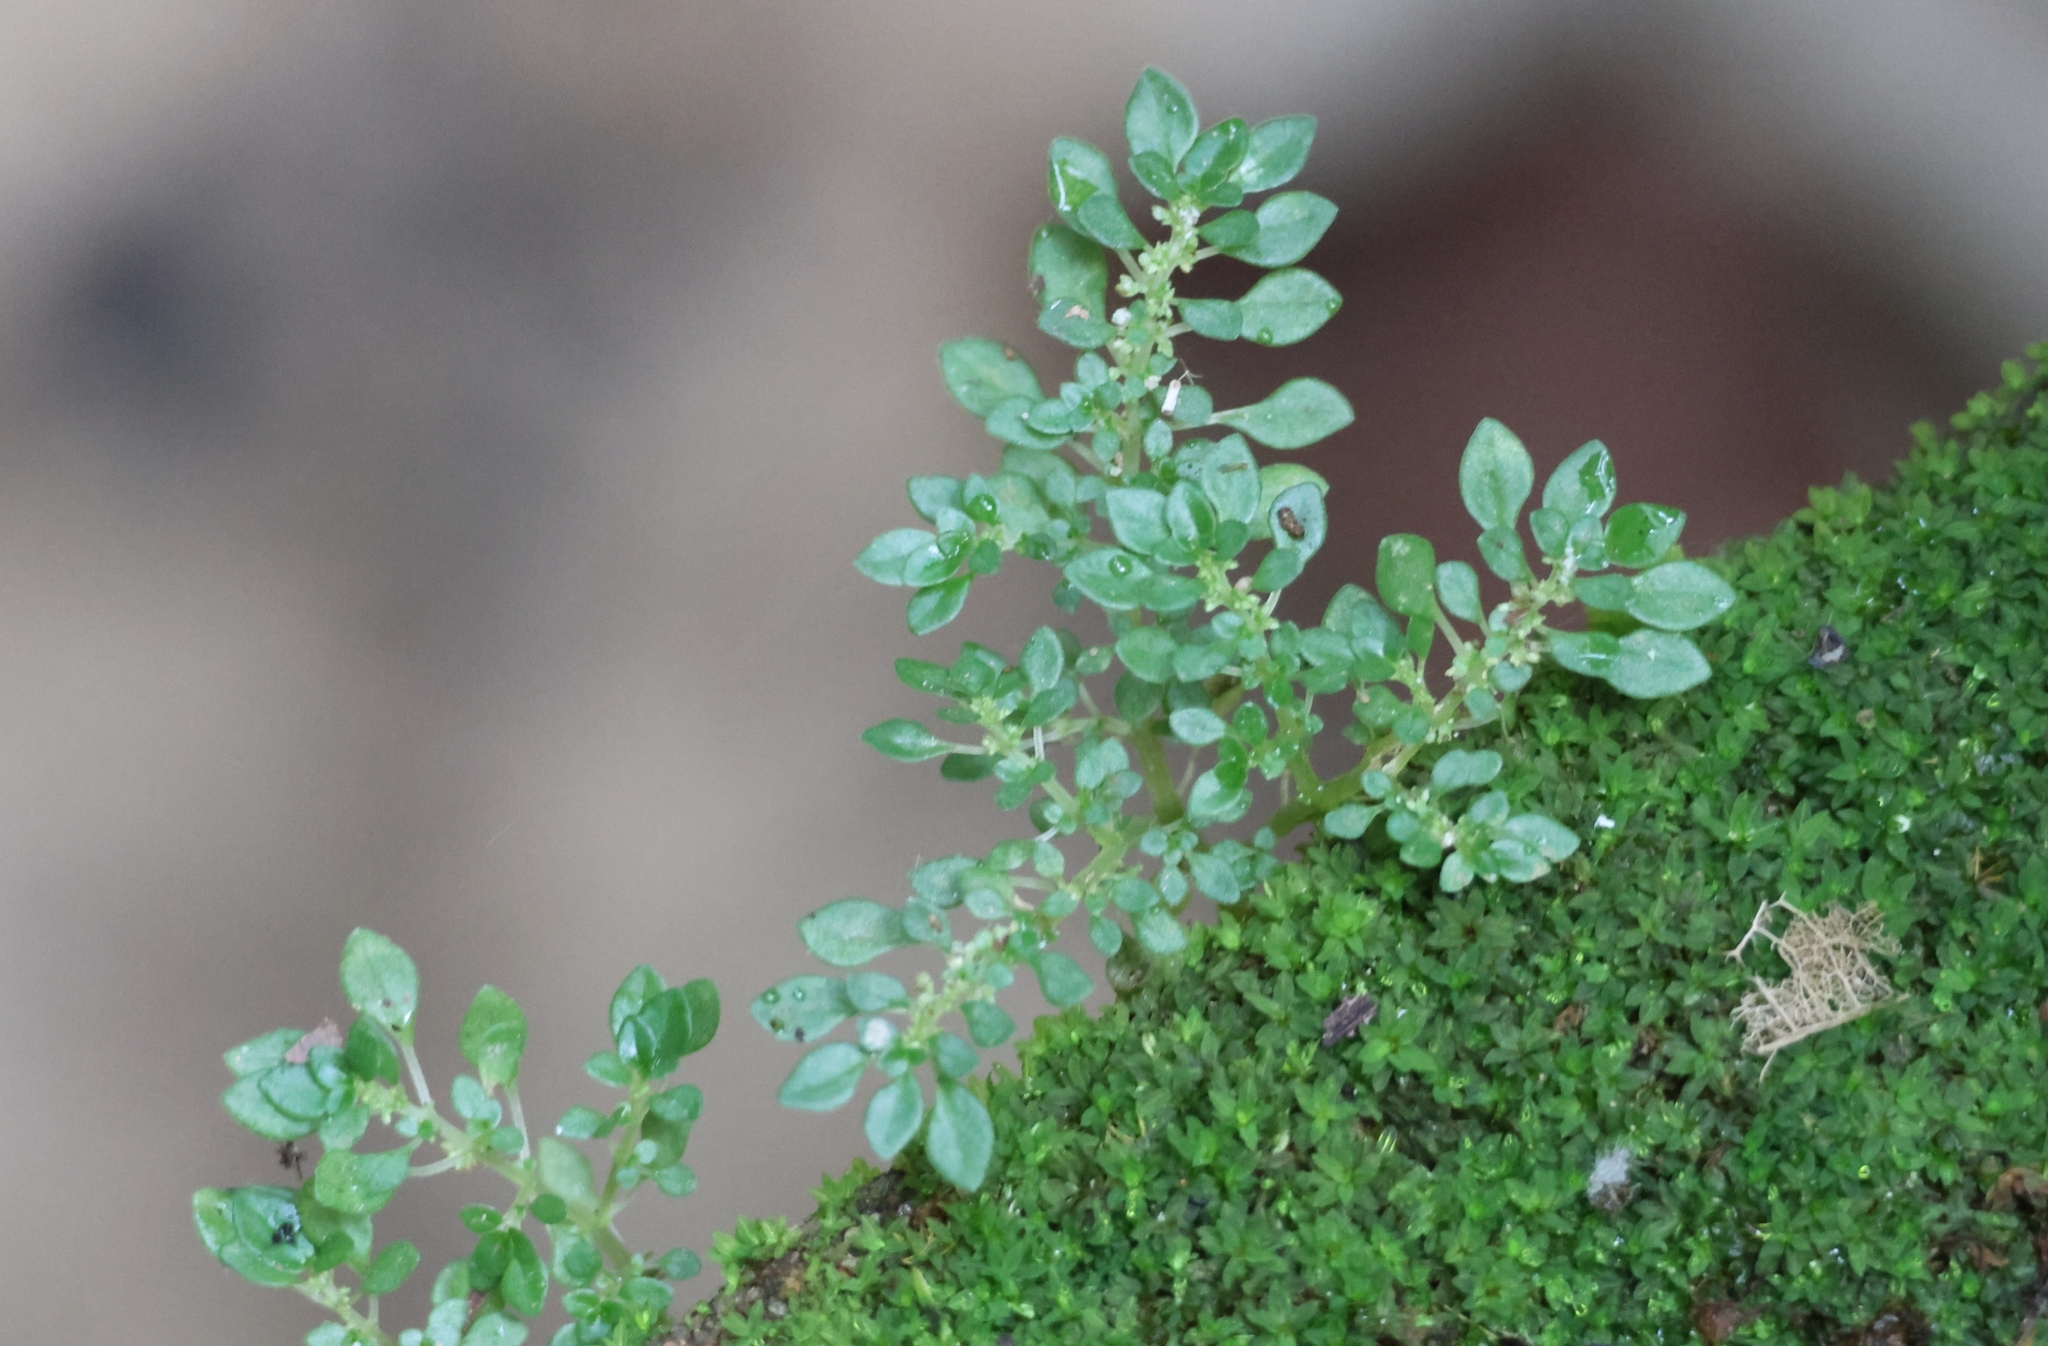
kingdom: Plantae
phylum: Tracheophyta
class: Magnoliopsida
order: Rosales
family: Urticaceae
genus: Pilea
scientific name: Pilea microphylla
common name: Artillery-plant
